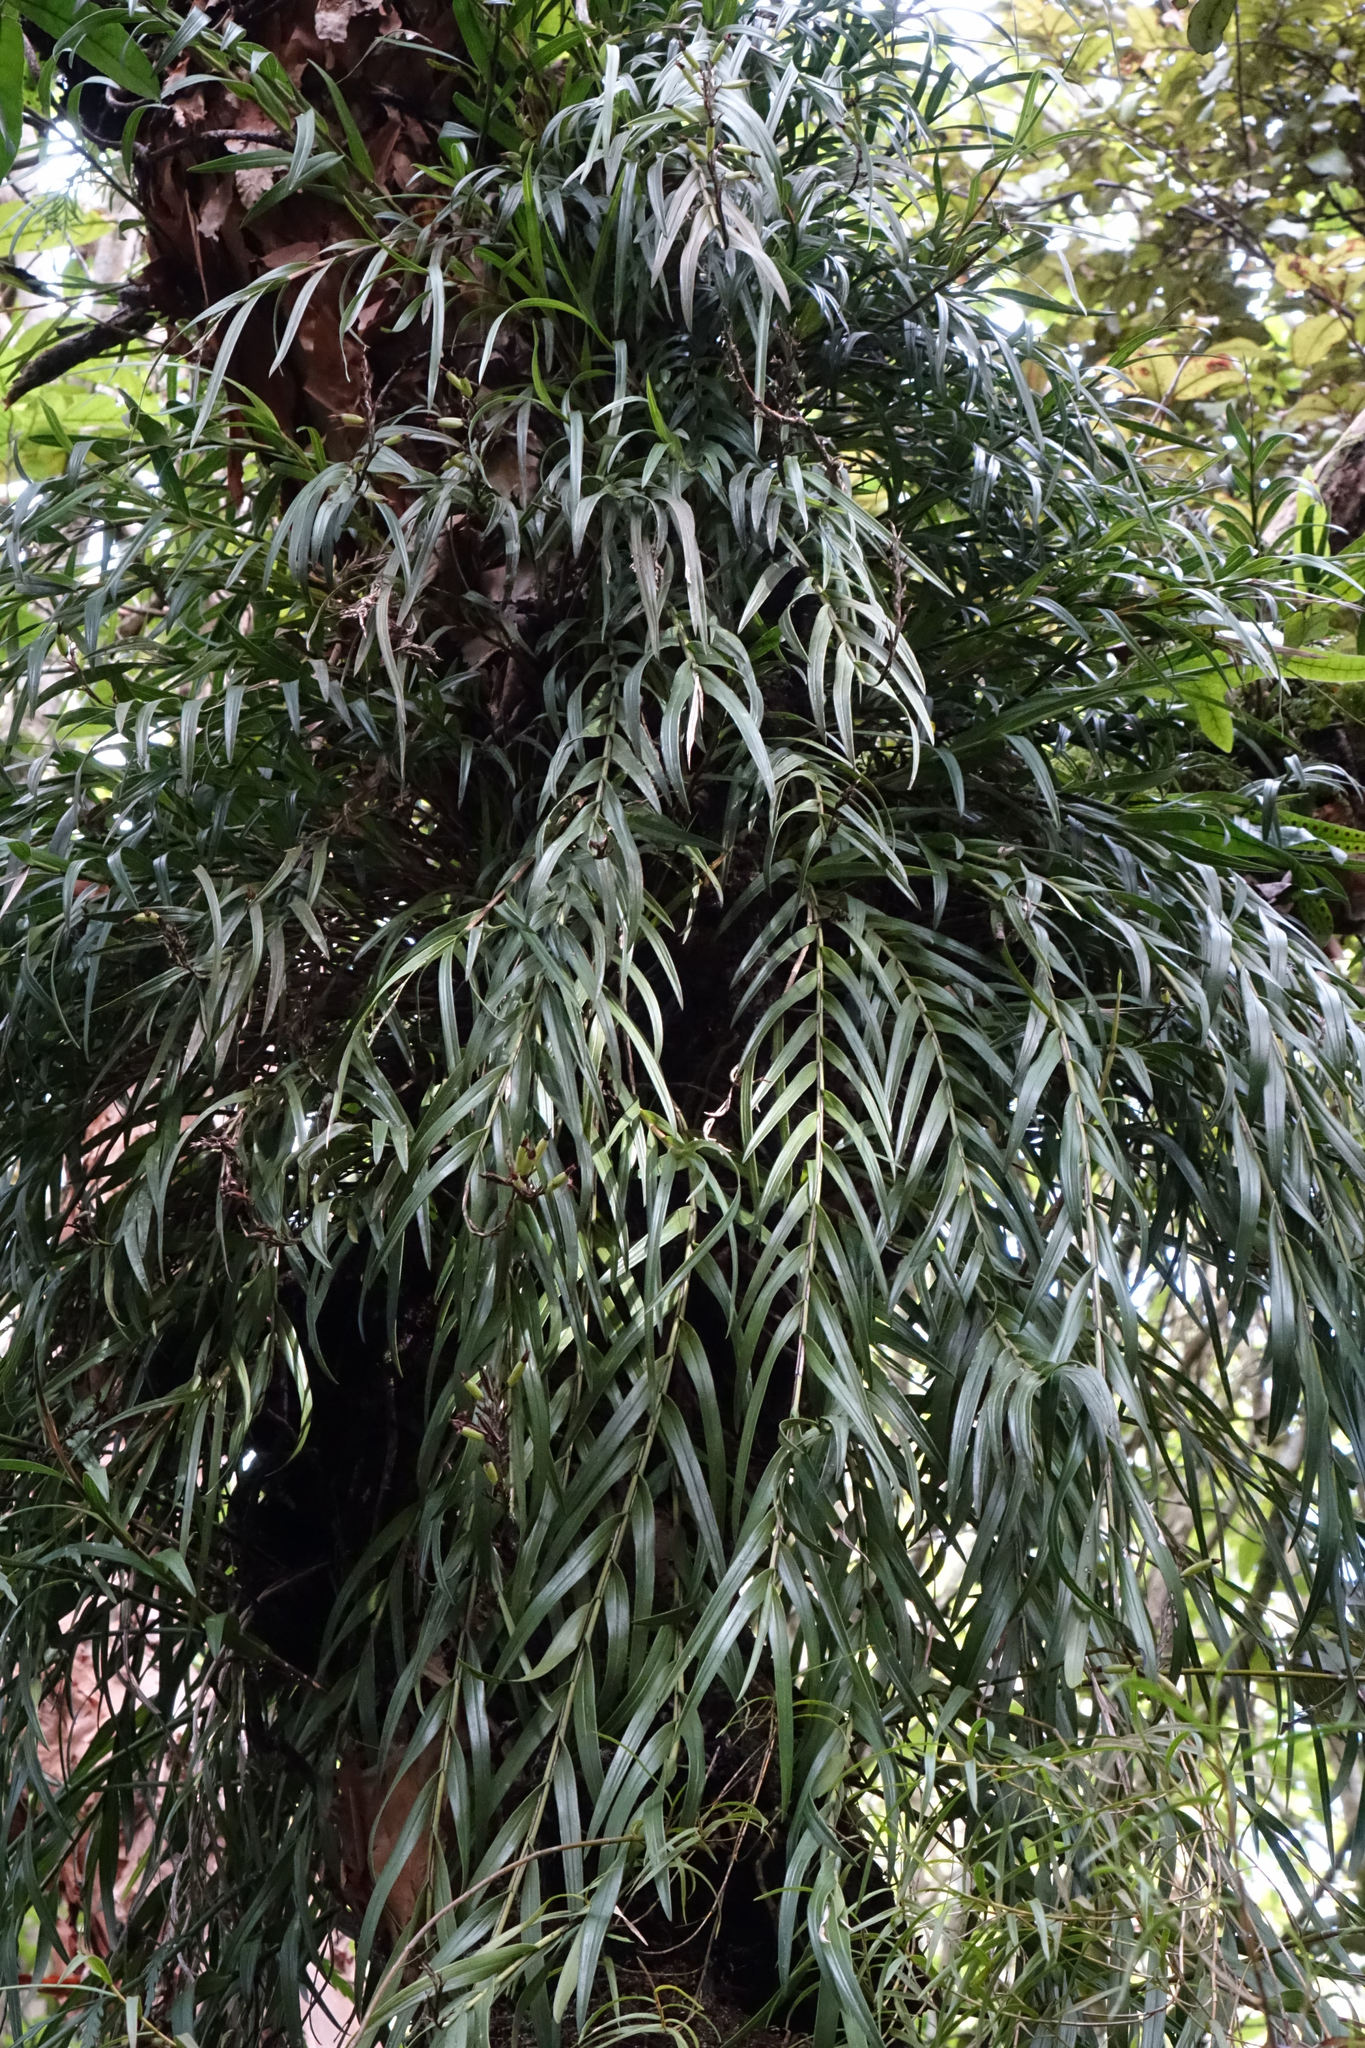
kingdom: Plantae
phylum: Tracheophyta
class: Liliopsida
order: Asparagales
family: Orchidaceae
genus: Earina
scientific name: Earina autumnalis
